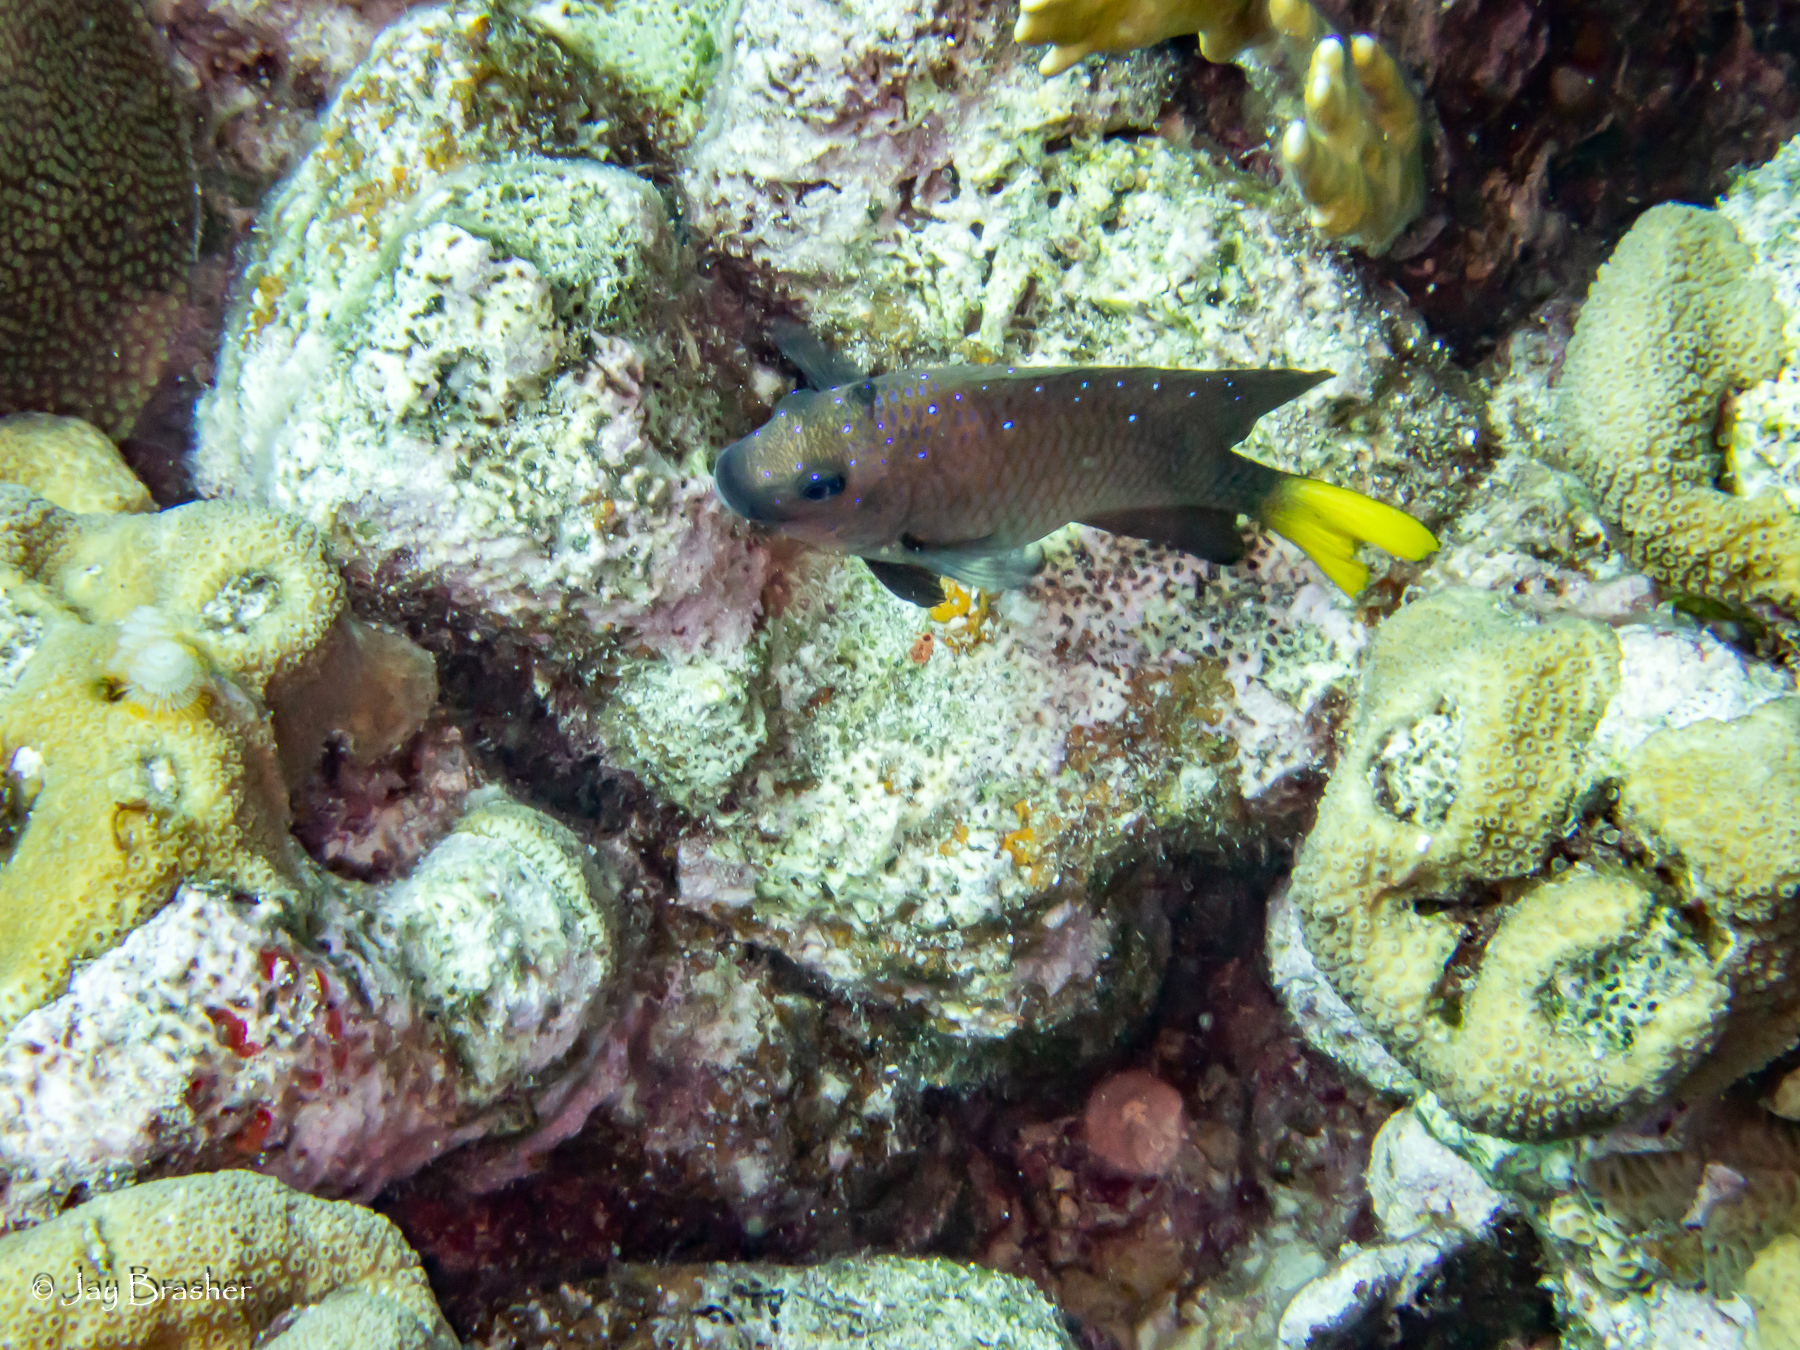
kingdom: Animalia
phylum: Chordata
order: Perciformes
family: Pomacentridae
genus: Microspathodon
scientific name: Microspathodon chrysurus
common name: Yellowtail damselfish
